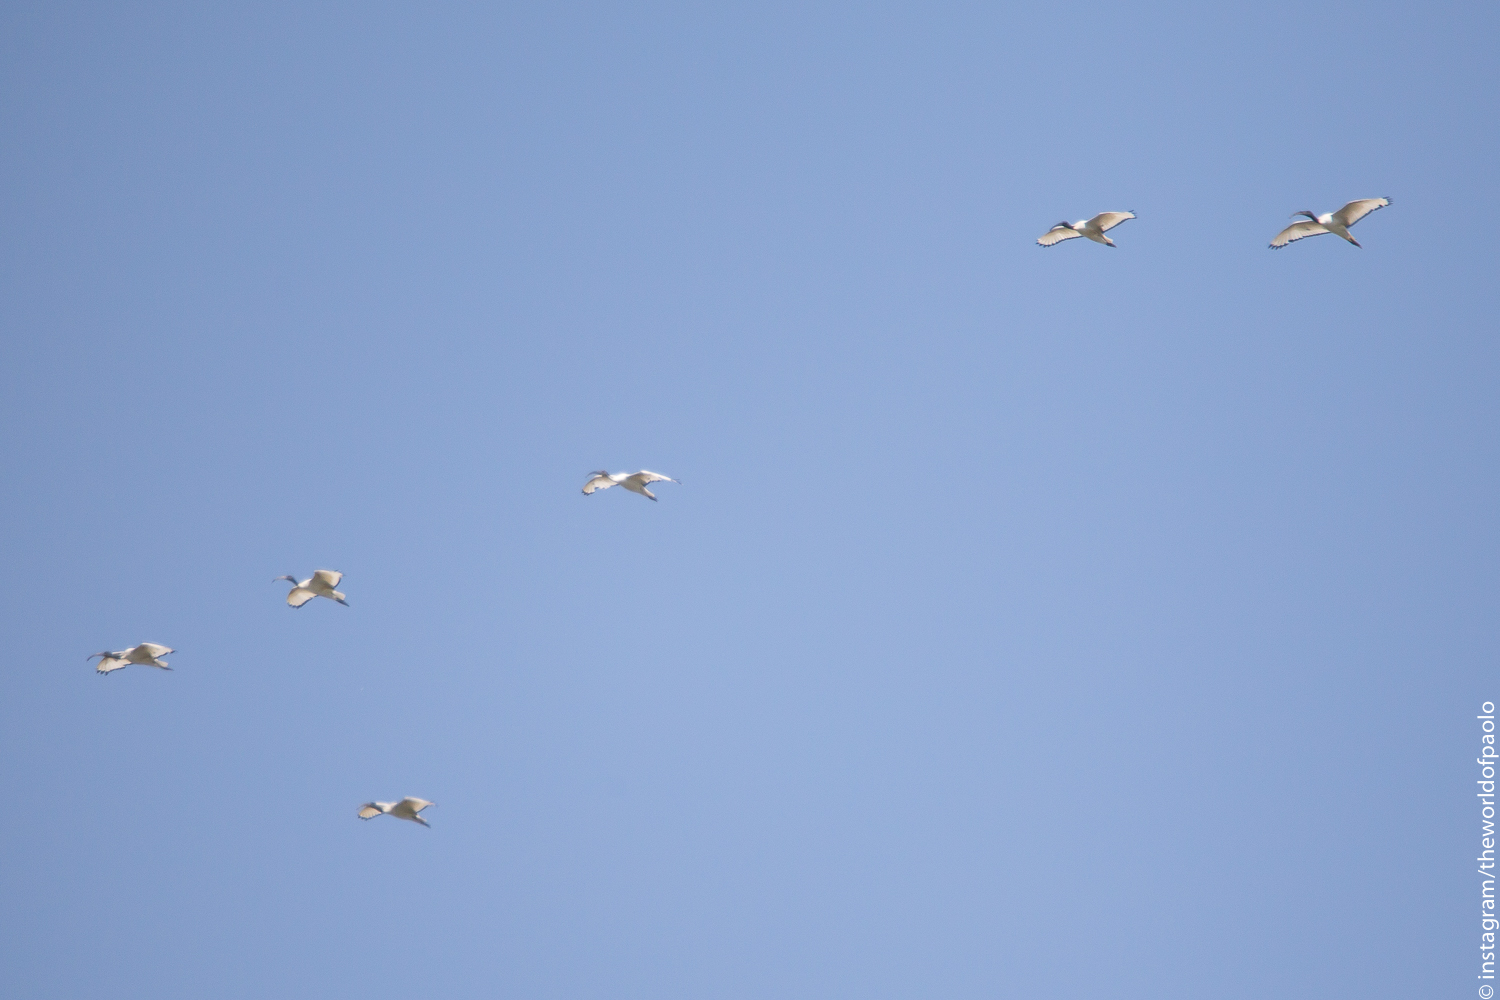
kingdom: Animalia
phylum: Chordata
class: Aves
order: Pelecaniformes
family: Threskiornithidae
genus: Threskiornis
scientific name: Threskiornis aethiopicus
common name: Sacred ibis
